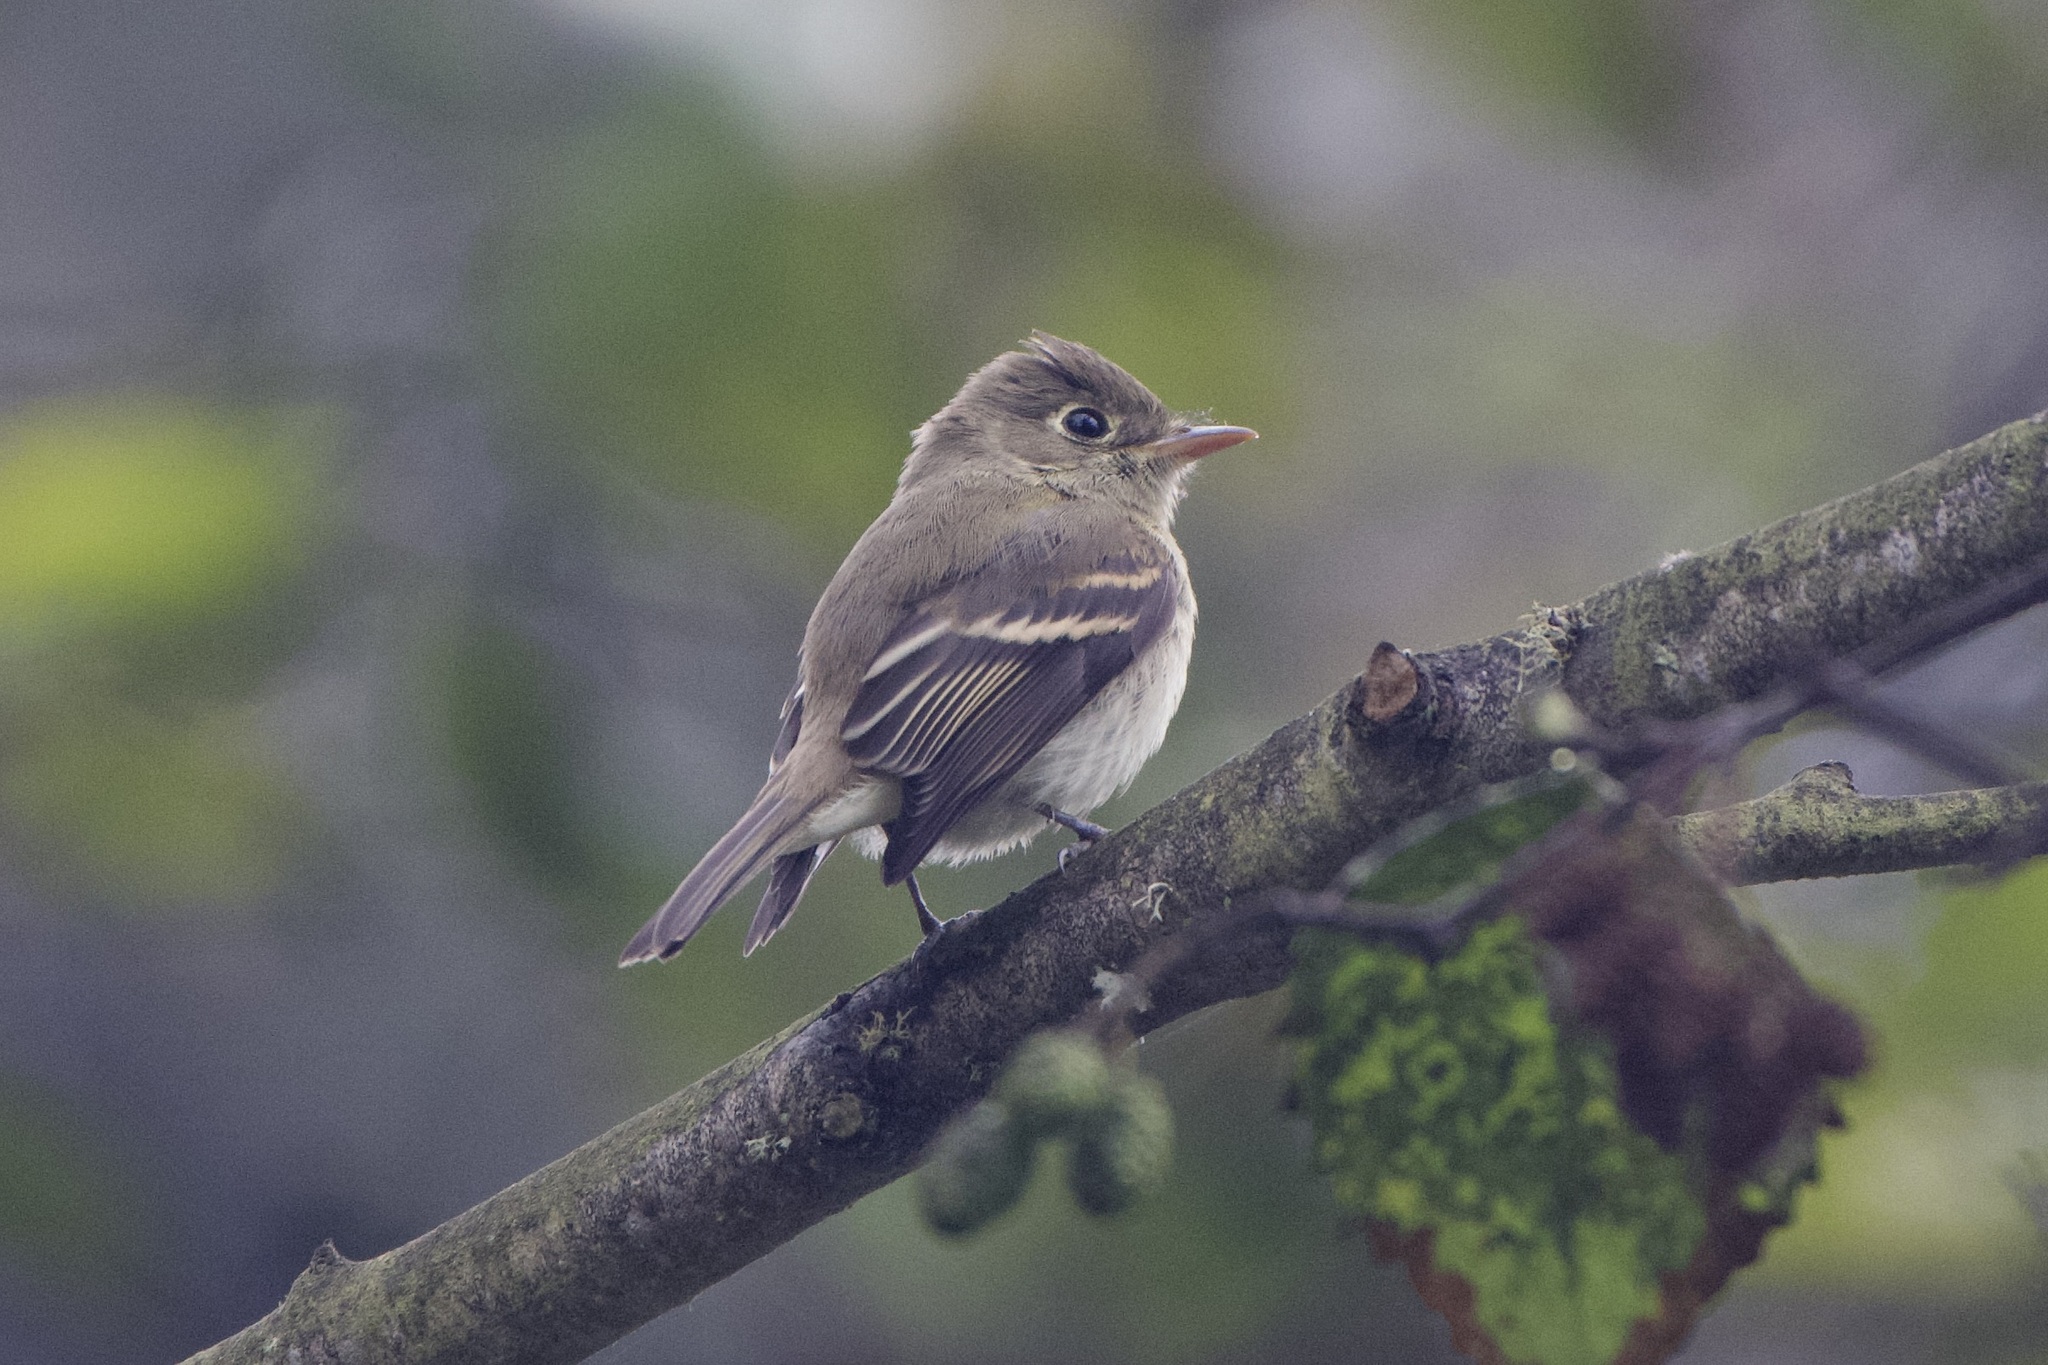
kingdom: Animalia
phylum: Chordata
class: Aves
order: Passeriformes
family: Tyrannidae
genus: Empidonax
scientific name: Empidonax difficilis
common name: Pacific-slope flycatcher
